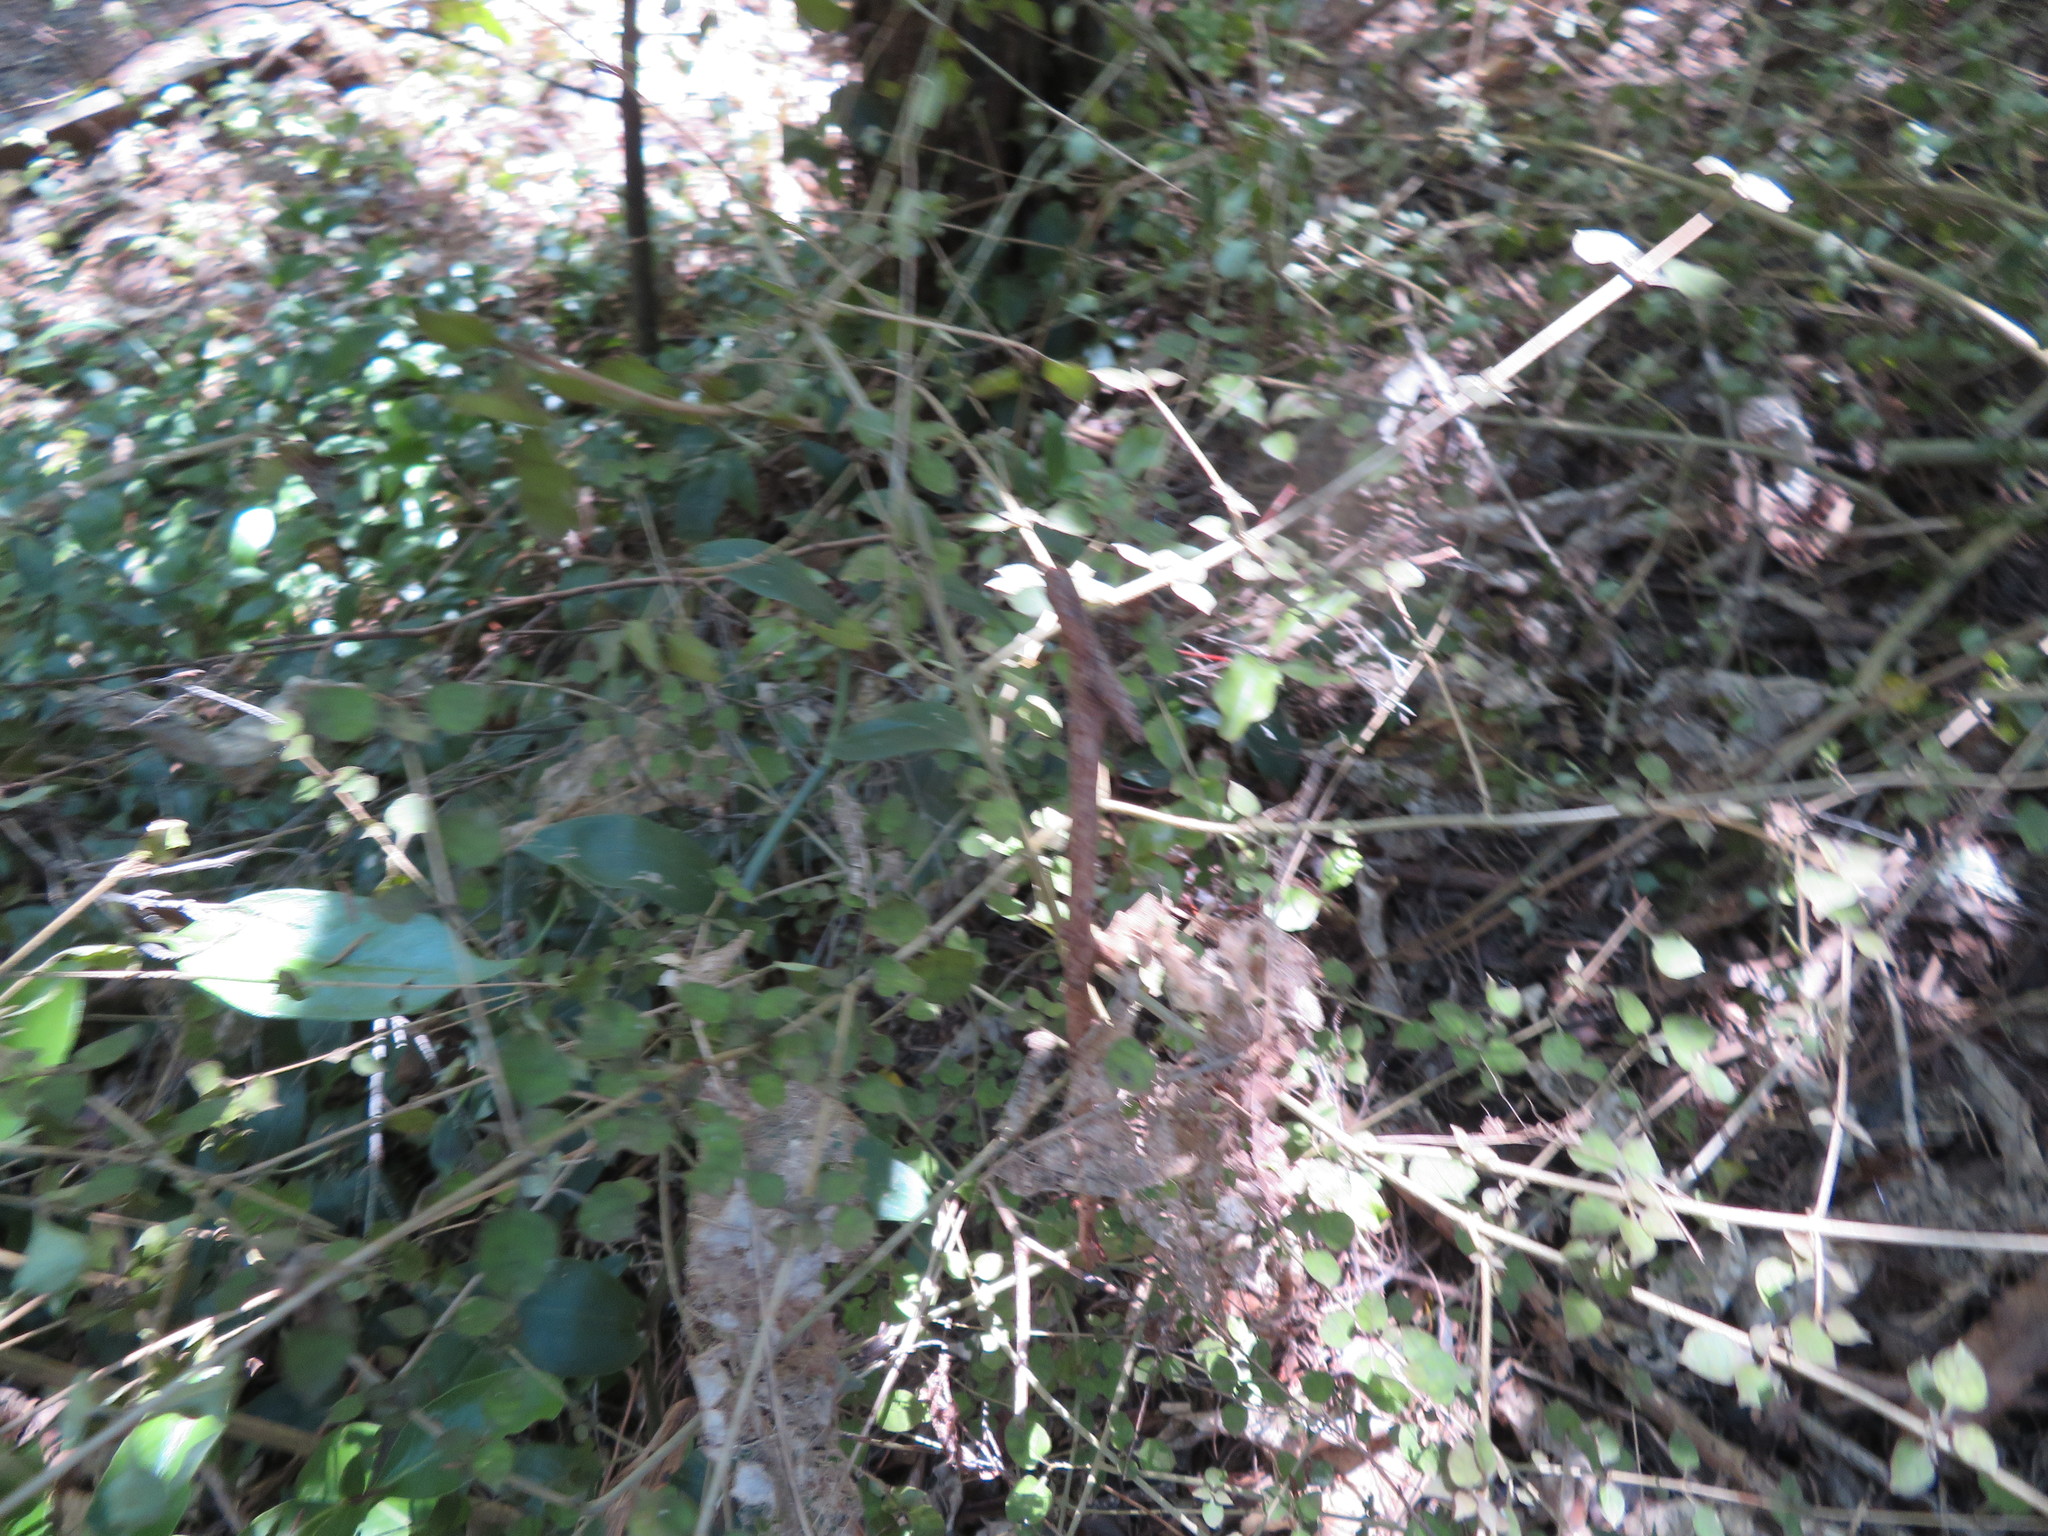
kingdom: Plantae
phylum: Tracheophyta
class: Magnoliopsida
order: Gentianales
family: Rubiaceae
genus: Coprosma
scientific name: Coprosma areolata
